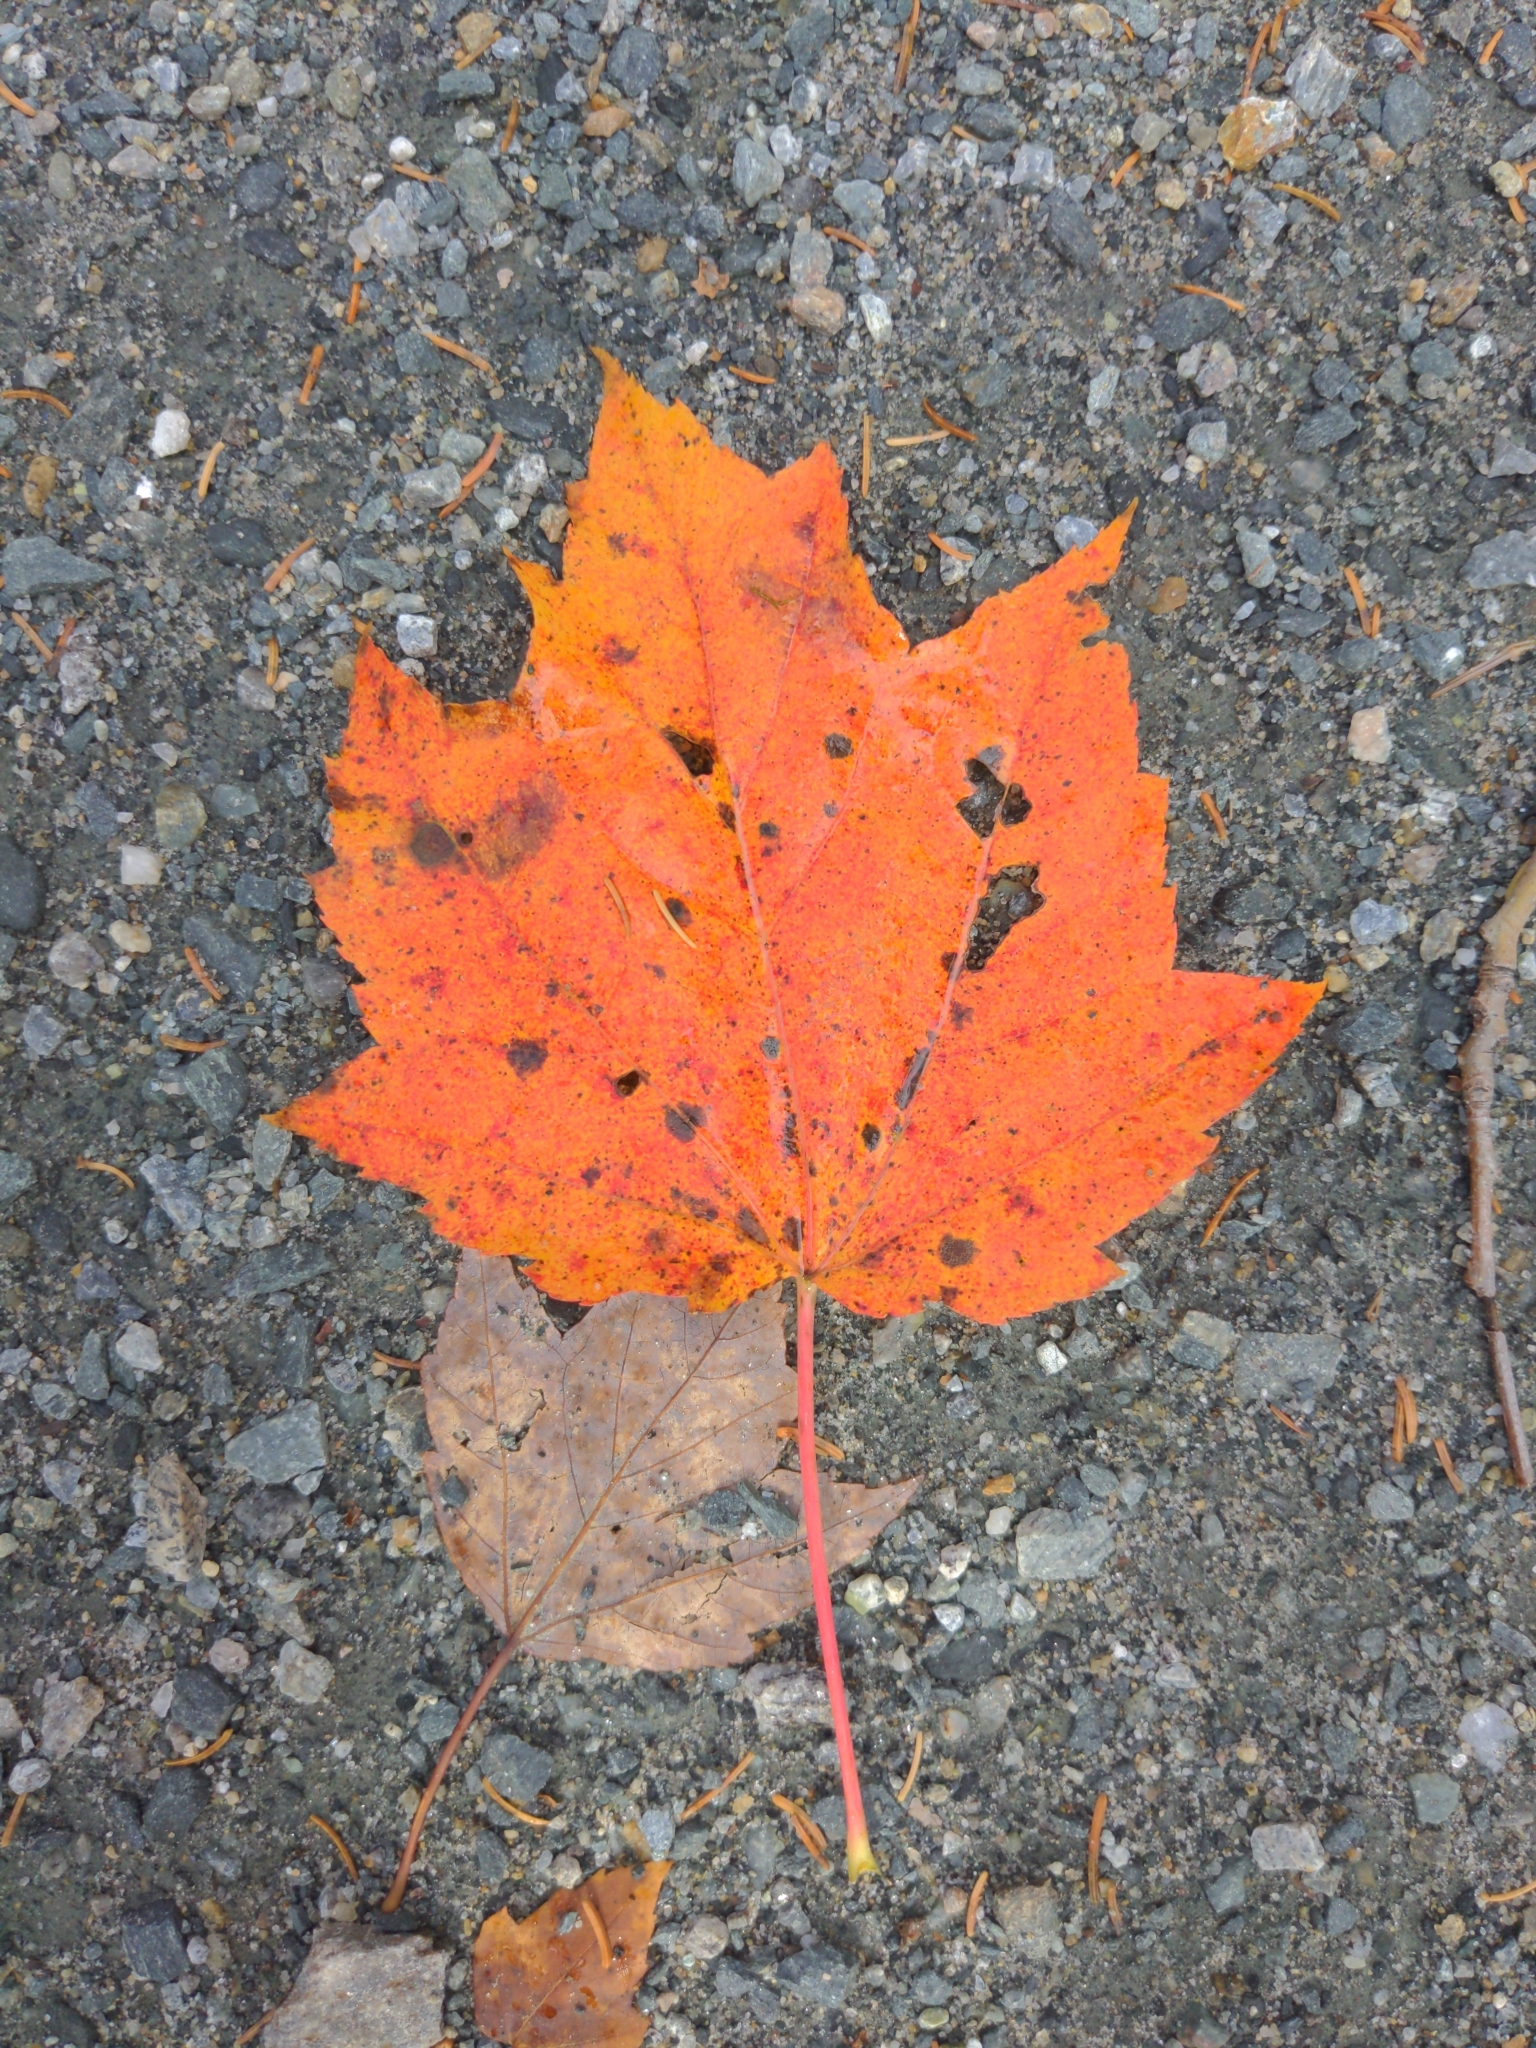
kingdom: Plantae
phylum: Tracheophyta
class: Magnoliopsida
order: Sapindales
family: Sapindaceae
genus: Acer
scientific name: Acer rubrum
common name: Red maple
